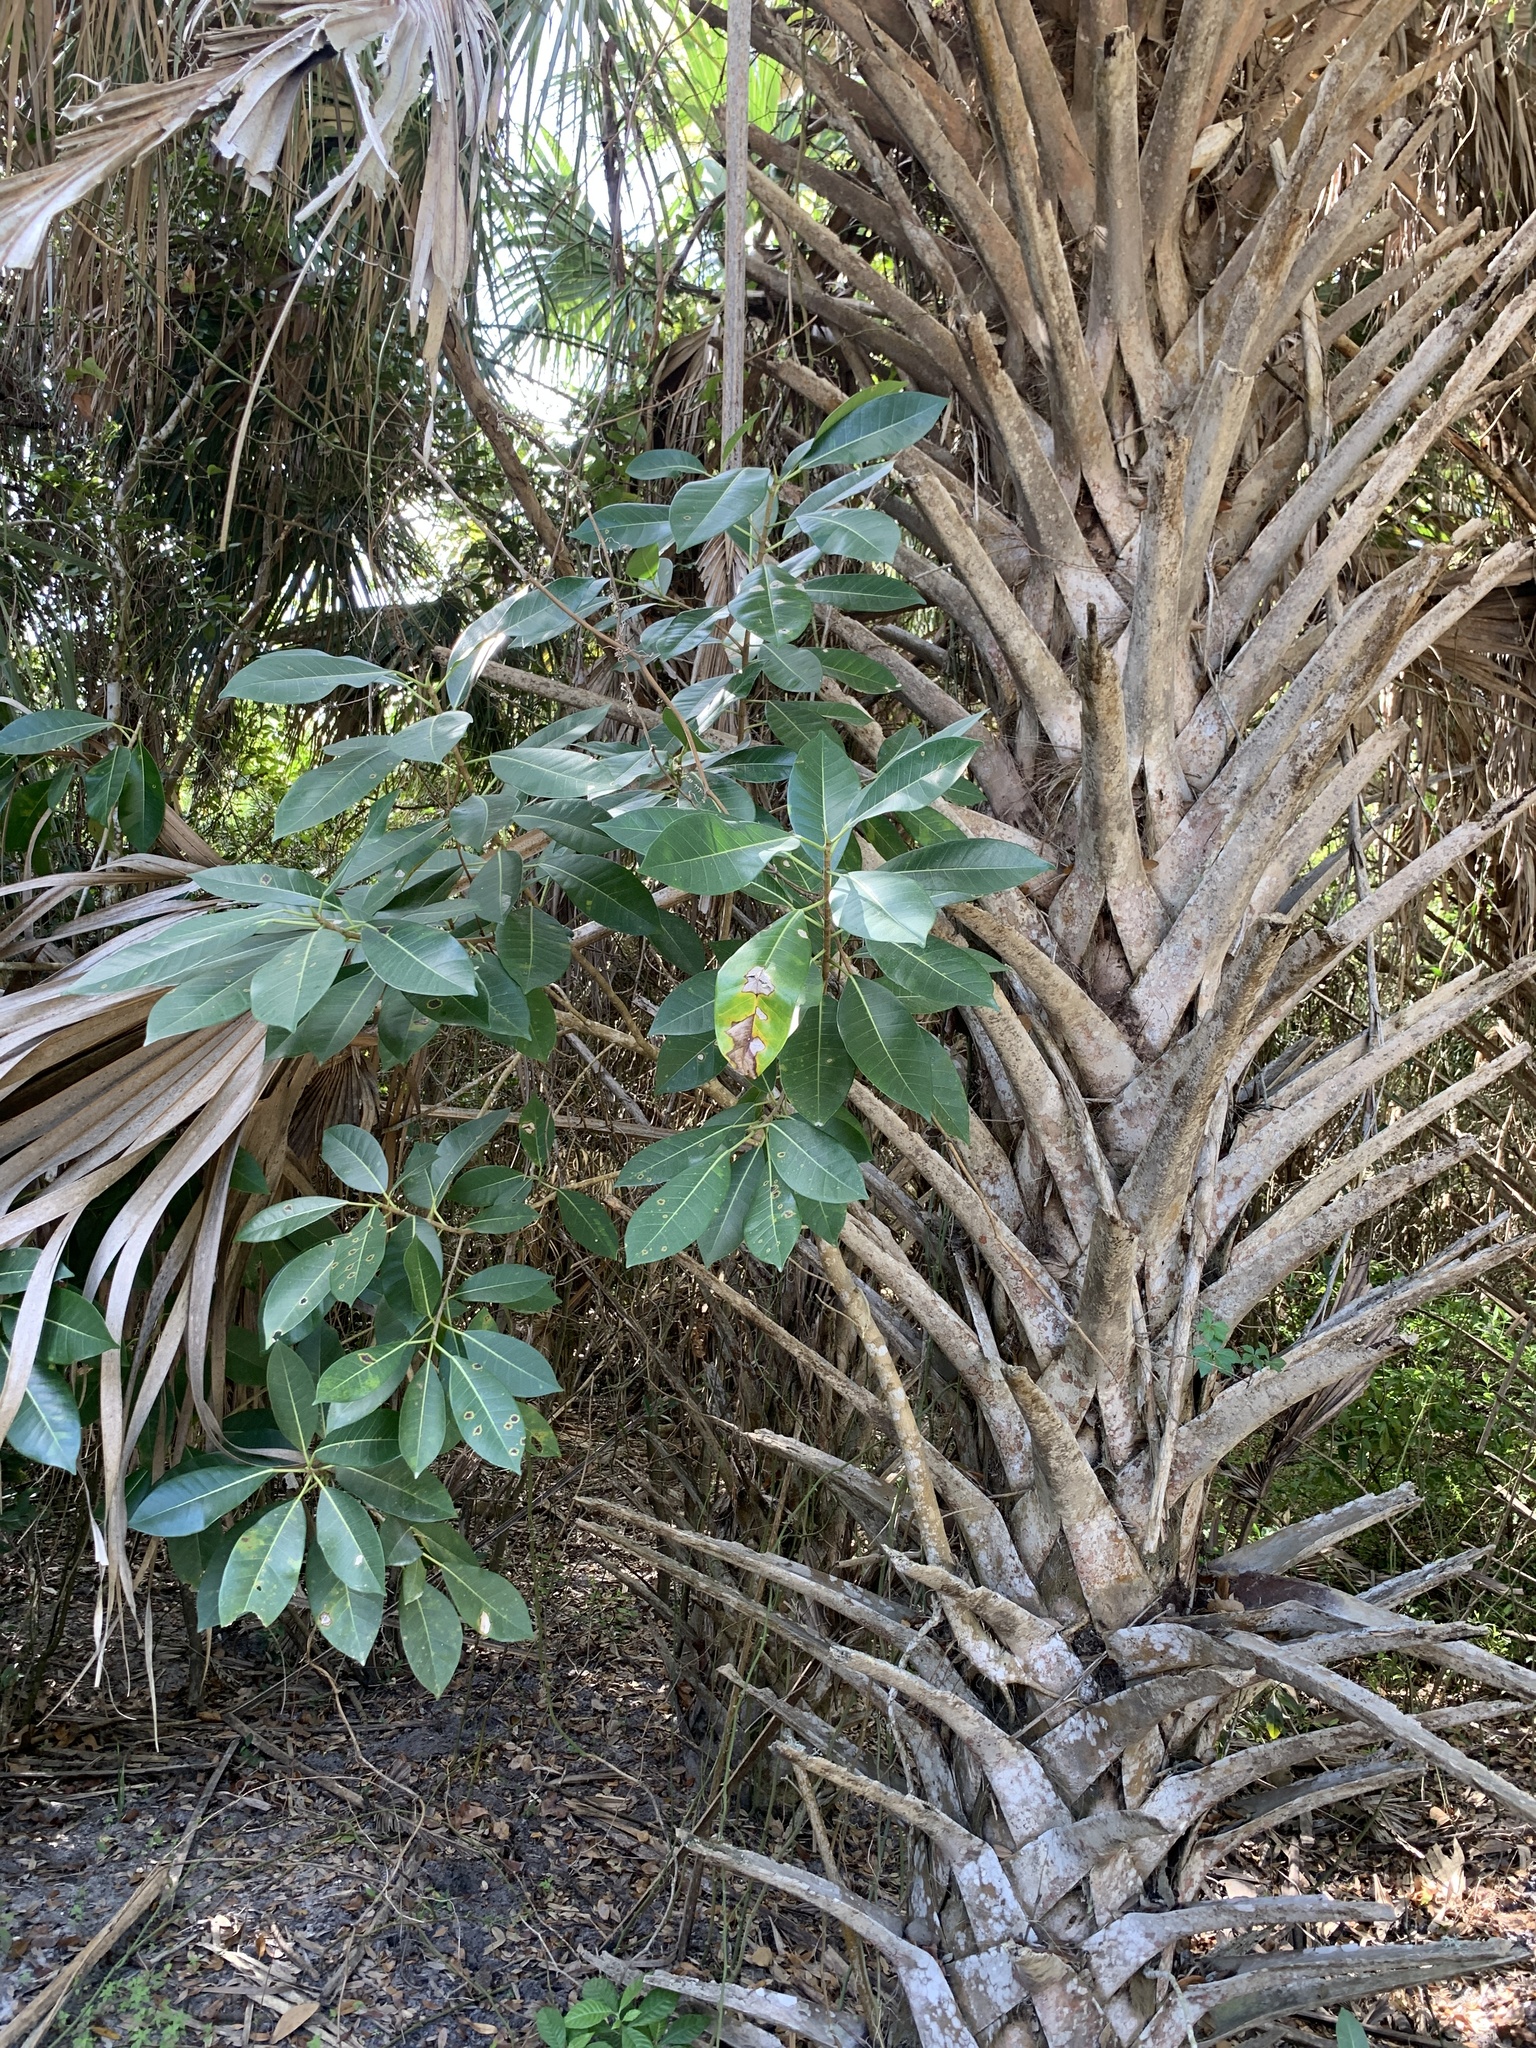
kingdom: Plantae
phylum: Tracheophyta
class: Magnoliopsida
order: Rosales
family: Moraceae
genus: Ficus
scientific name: Ficus aurea
